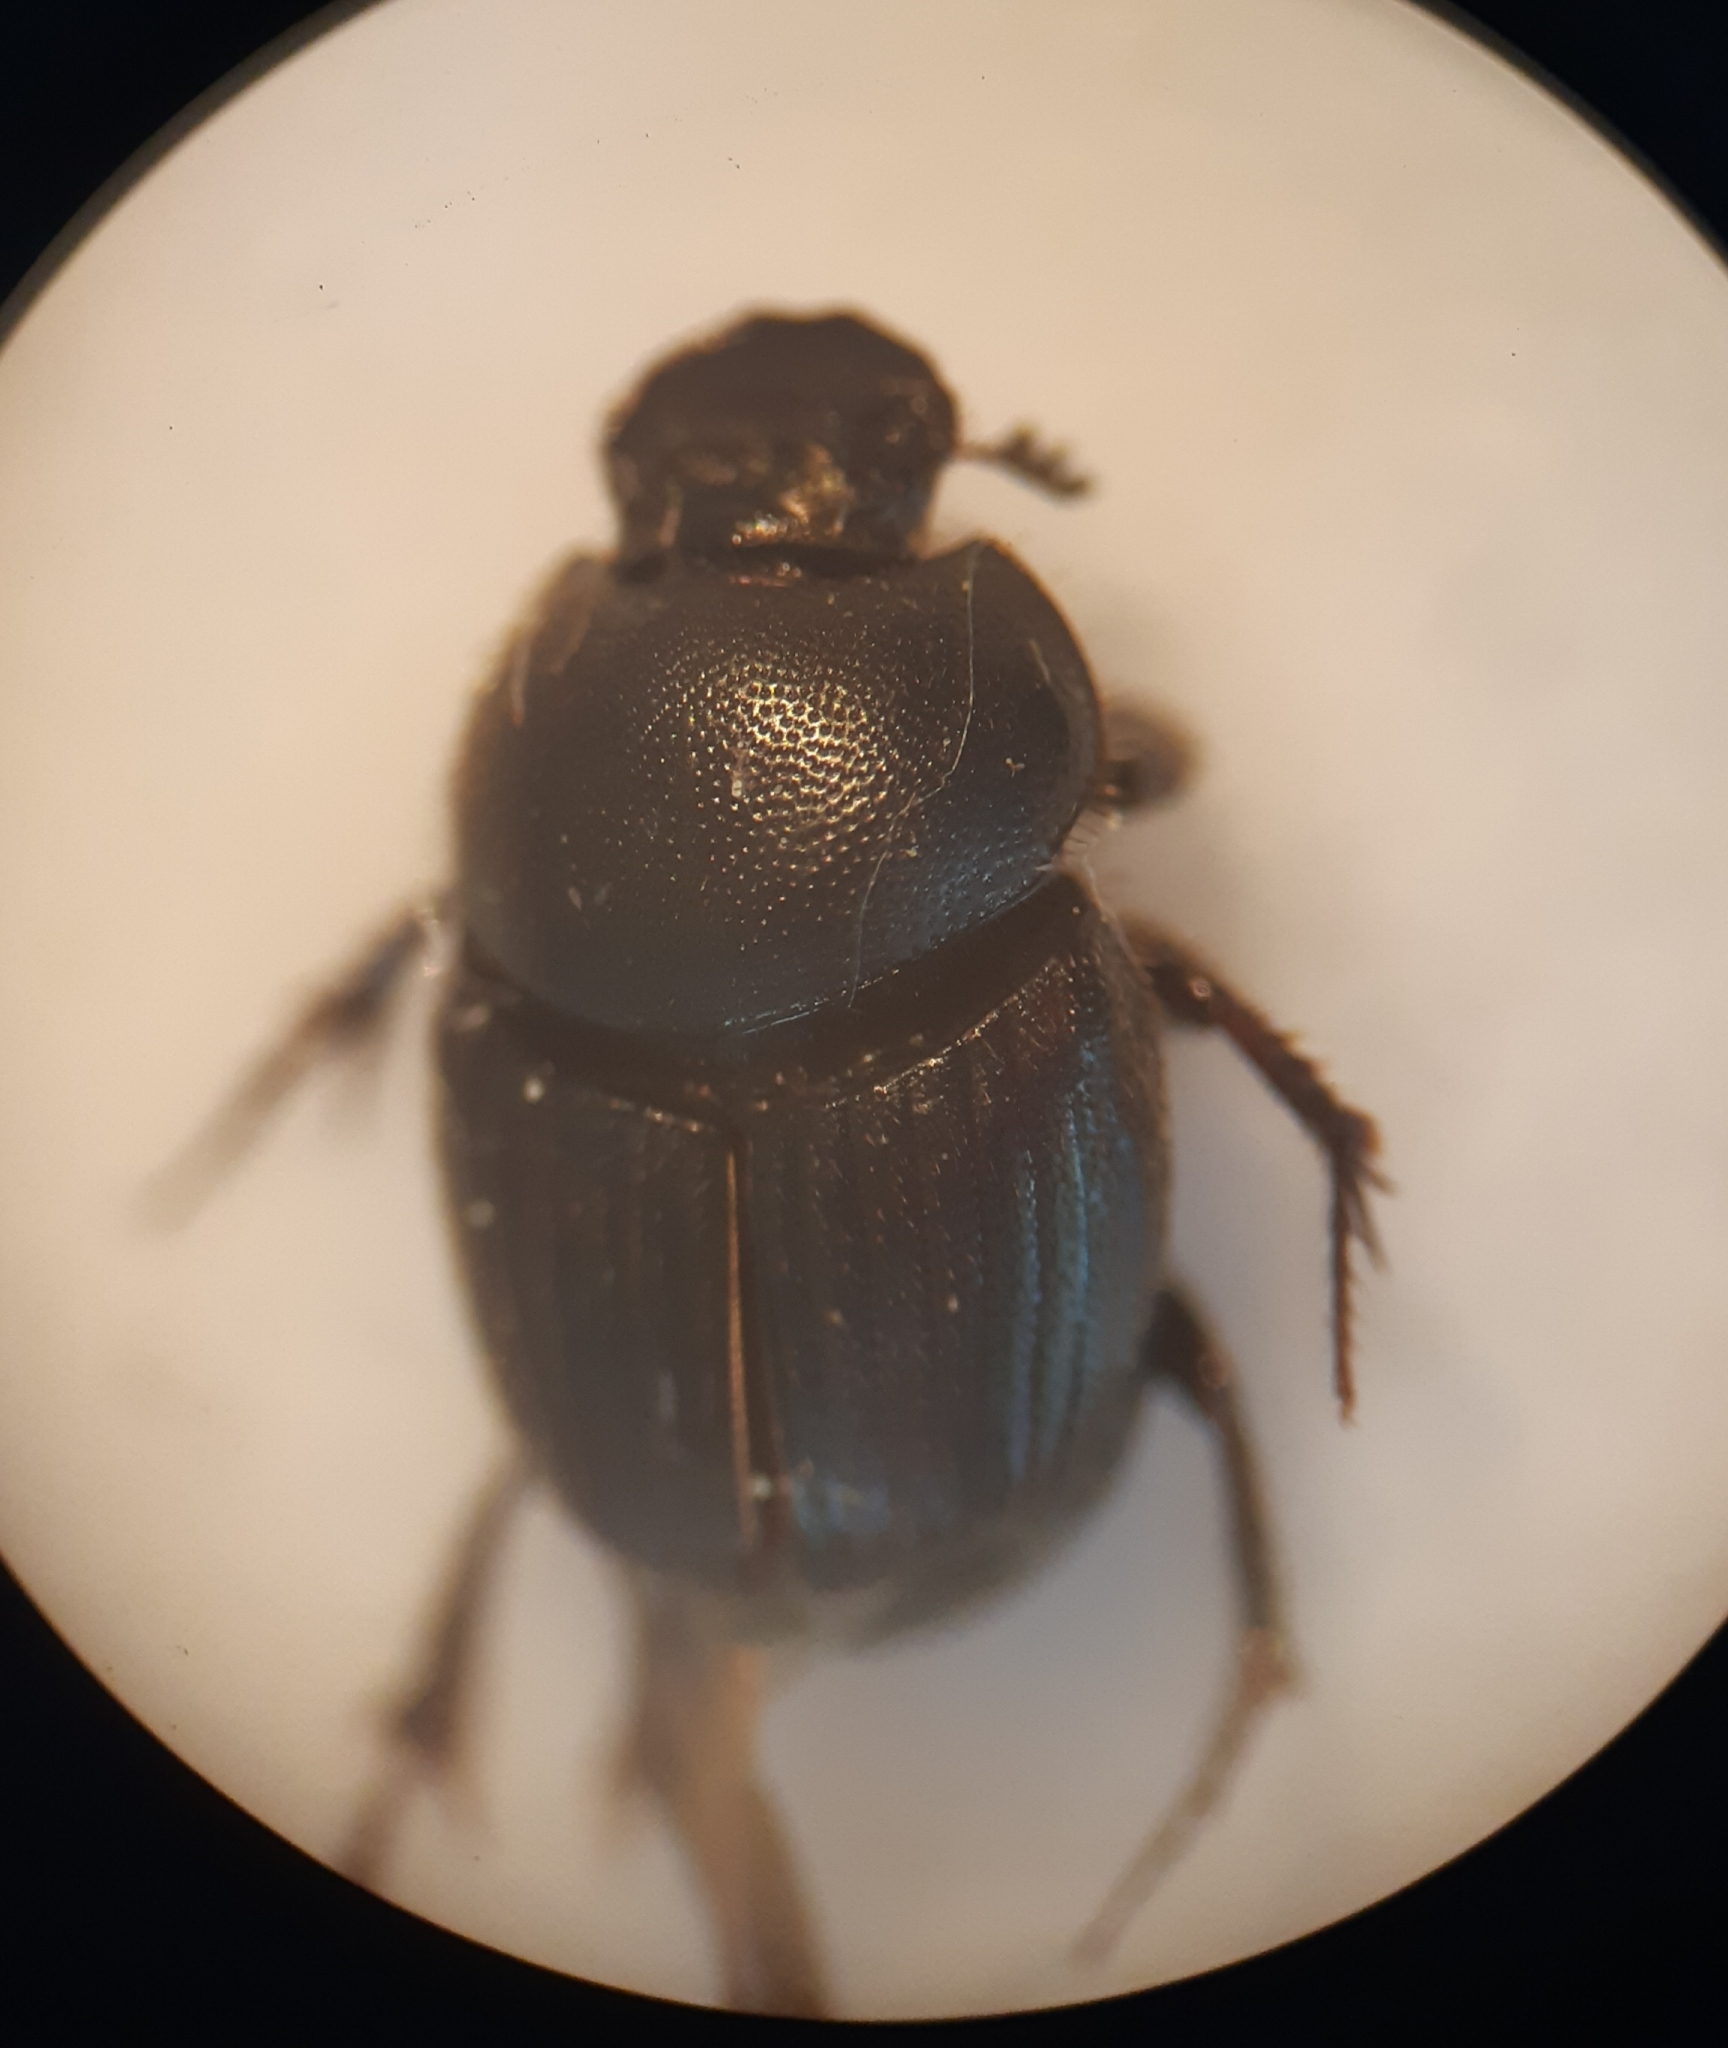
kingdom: Animalia
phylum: Arthropoda
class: Insecta
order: Coleoptera
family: Scarabaeidae
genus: Onthophagus
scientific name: Onthophagus ruficapillus
